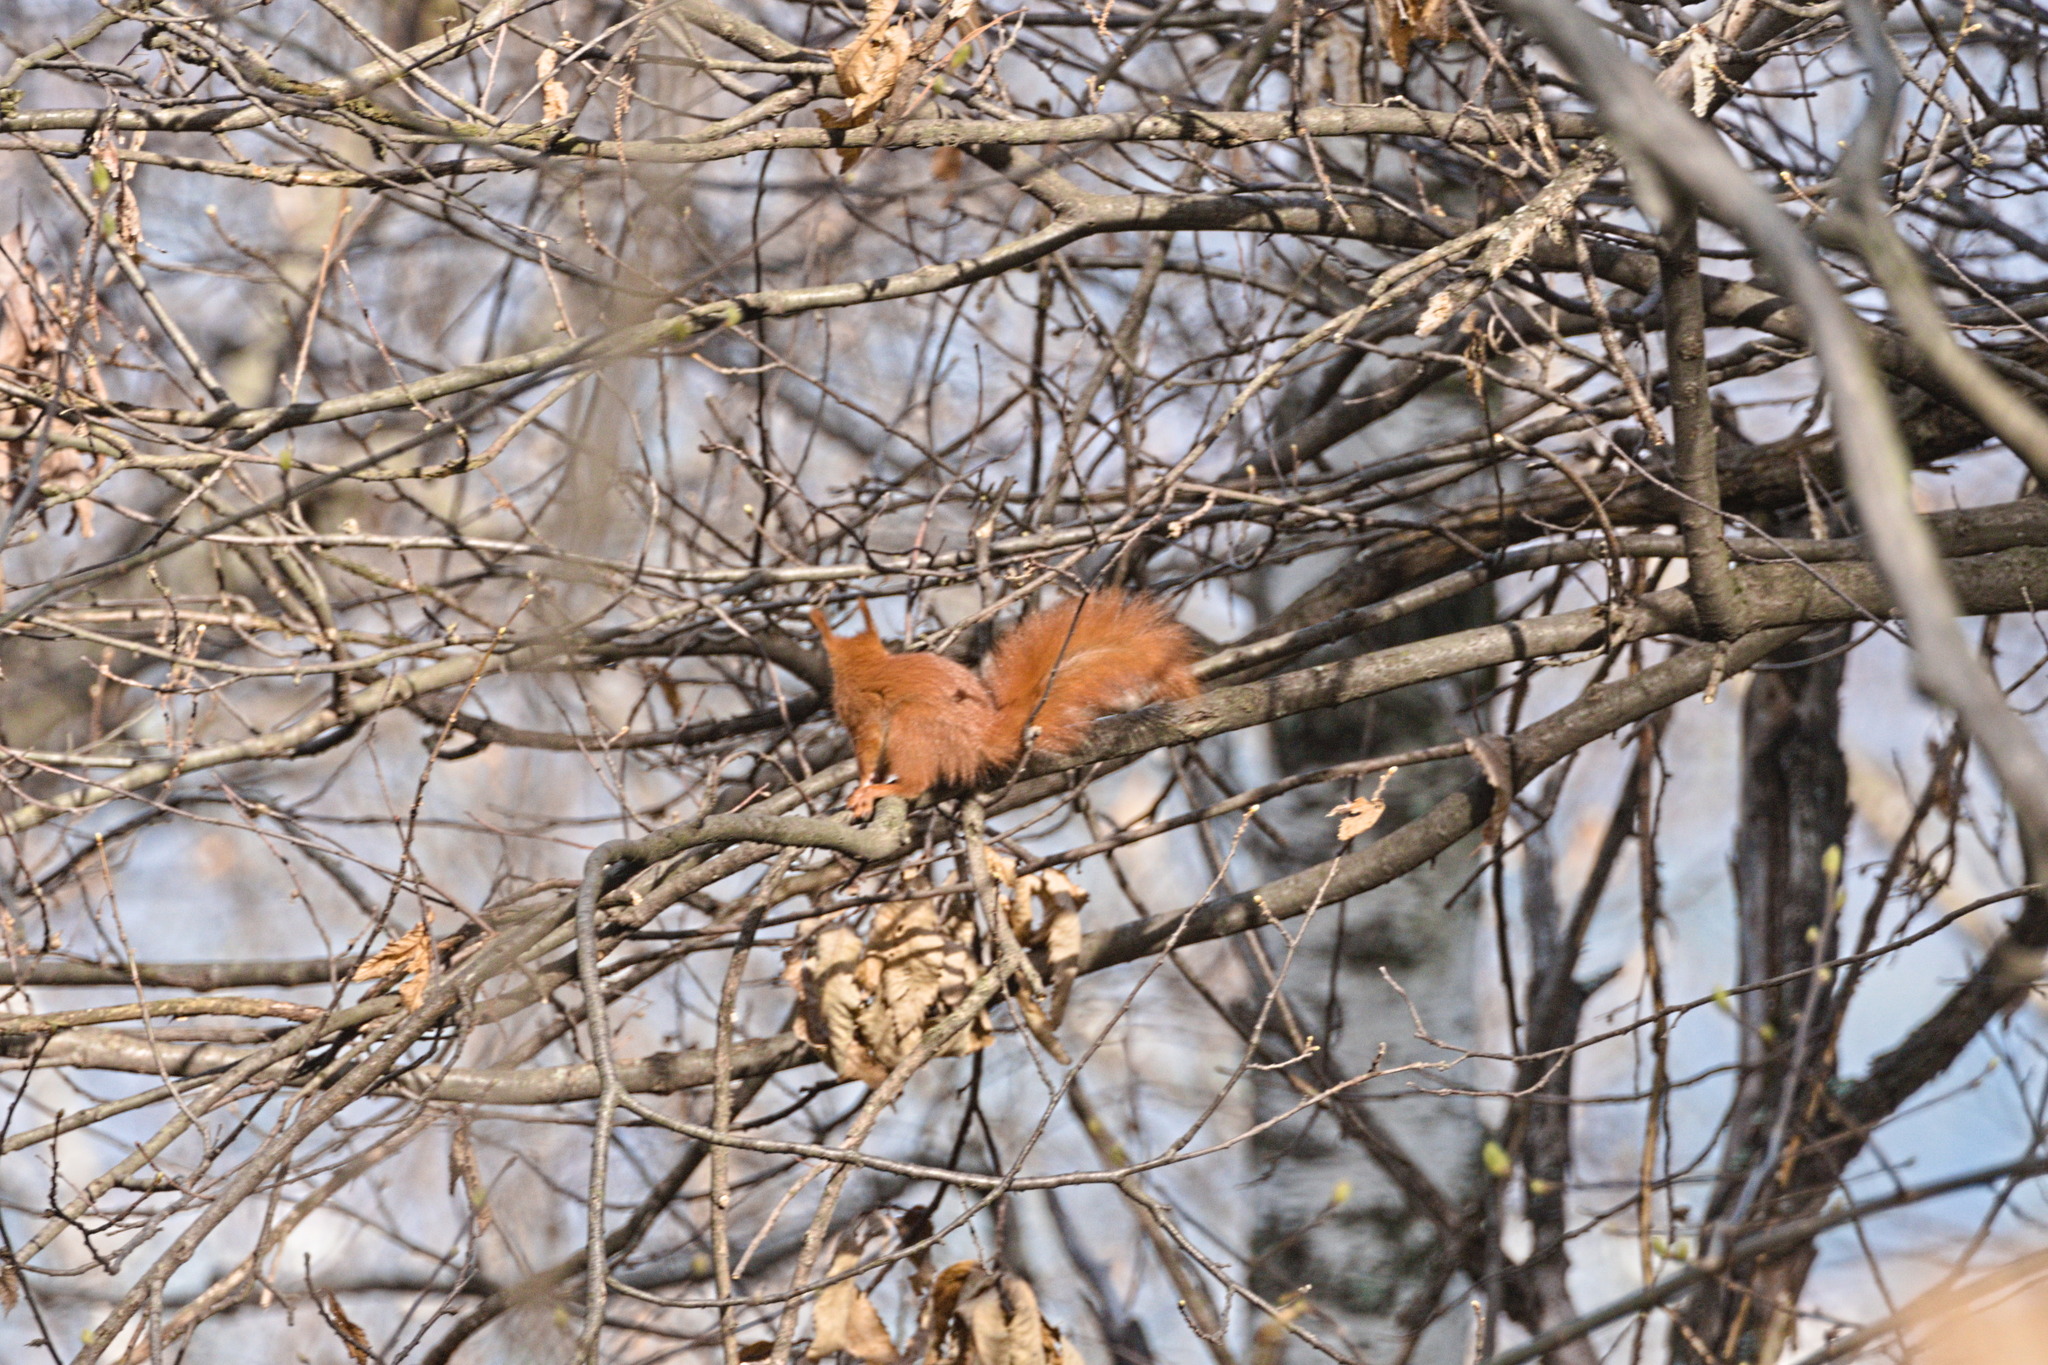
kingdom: Animalia
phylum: Chordata
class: Mammalia
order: Rodentia
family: Sciuridae
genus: Sciurus
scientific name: Sciurus vulgaris
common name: Eurasian red squirrel
